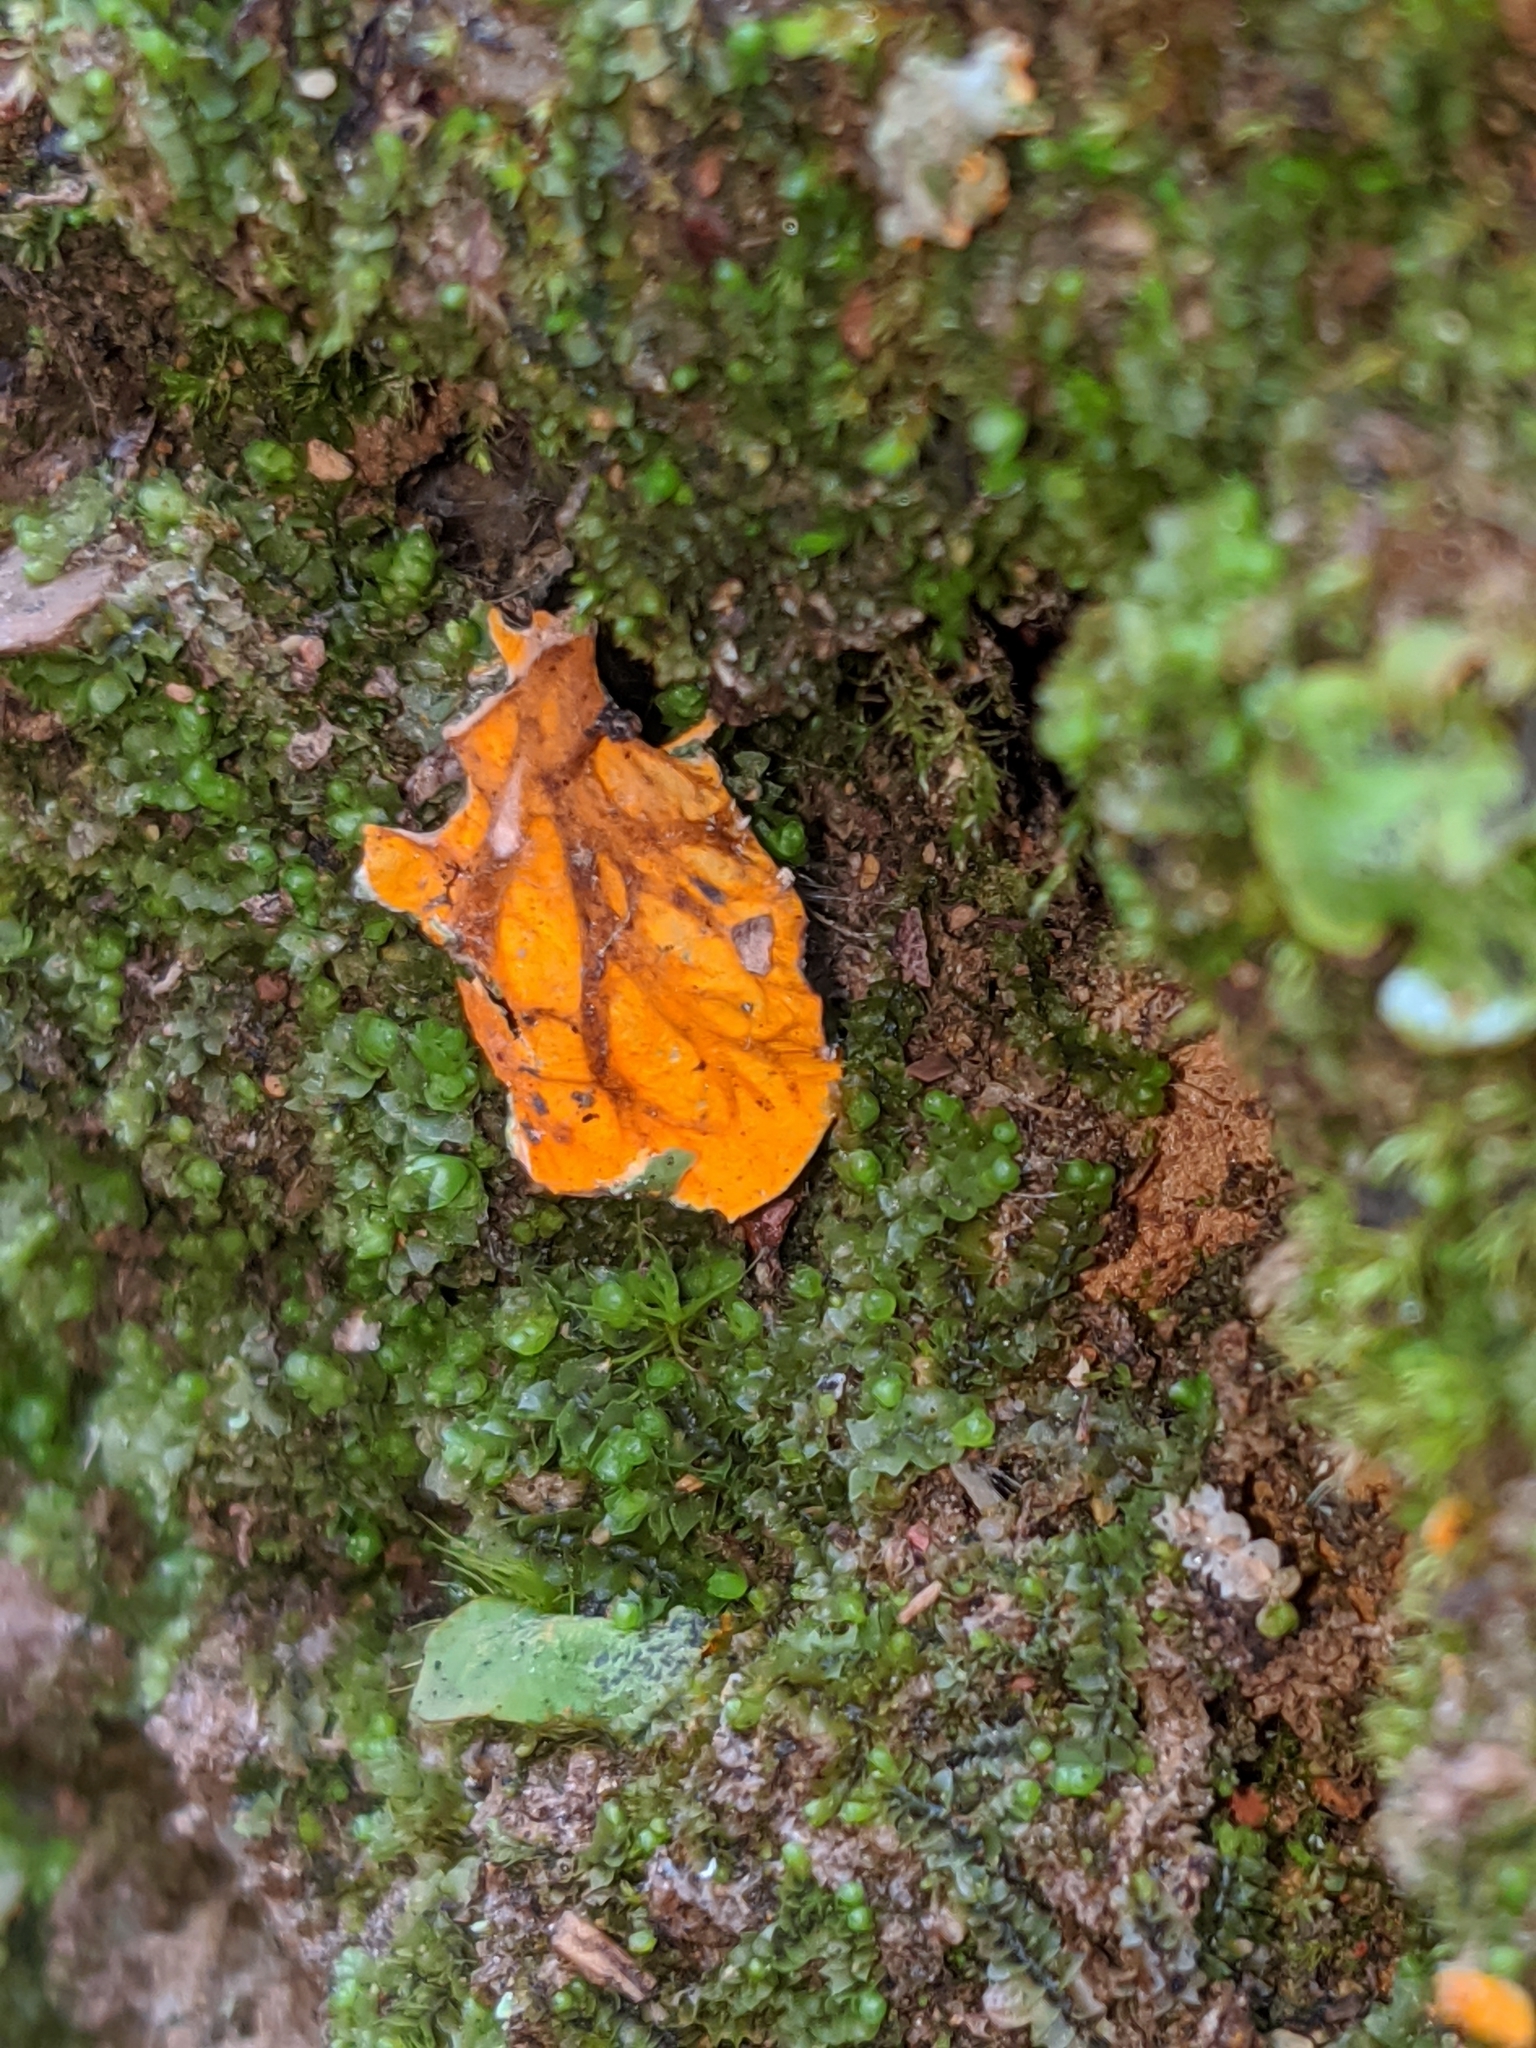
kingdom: Fungi
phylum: Ascomycota
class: Lecanoromycetes
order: Peltigerales
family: Peltigeraceae
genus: Solorina
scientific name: Solorina crocea
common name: Mountain saffron
